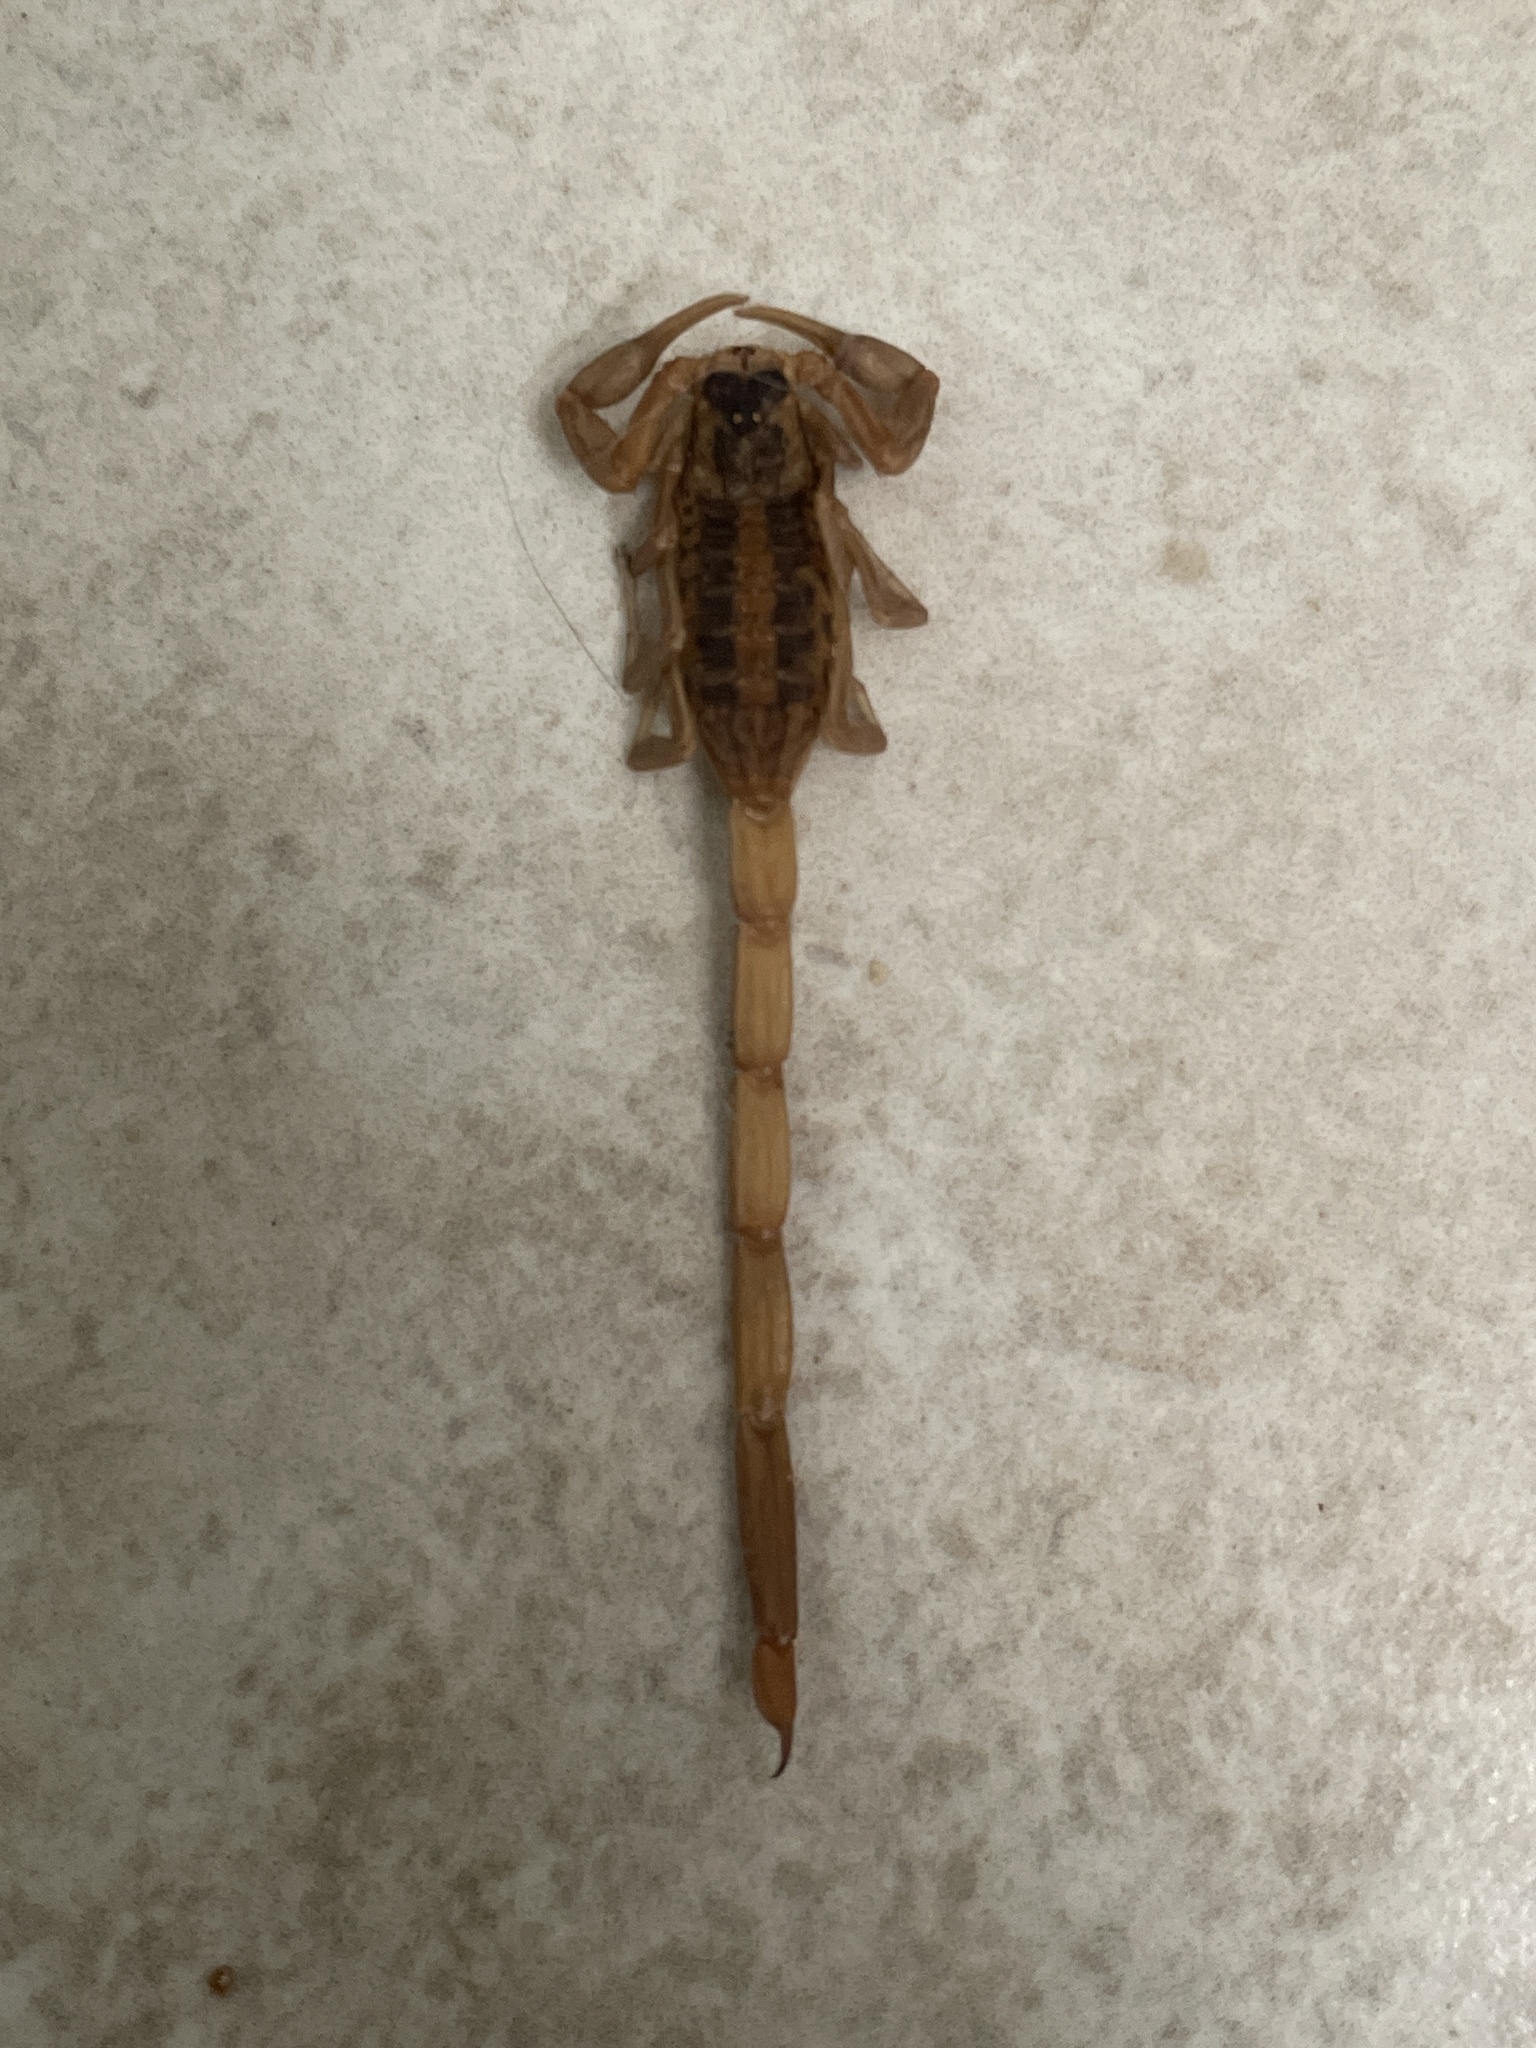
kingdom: Animalia
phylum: Arthropoda
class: Arachnida
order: Scorpiones
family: Buthidae
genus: Centruroides
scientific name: Centruroides vittatus
